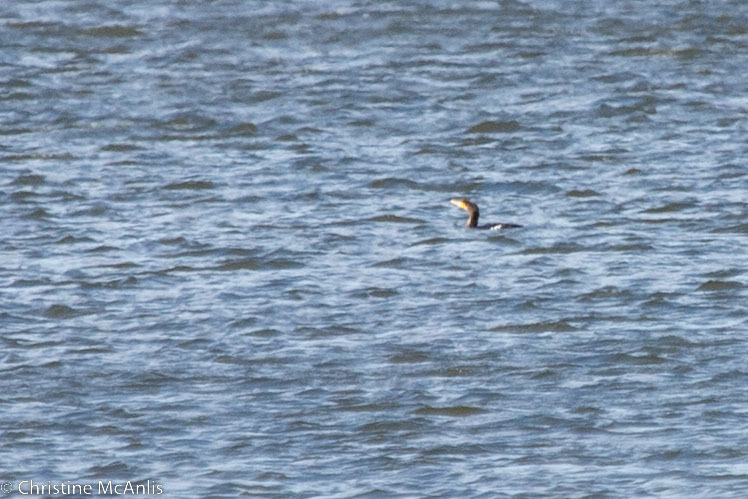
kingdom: Animalia
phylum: Chordata
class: Aves
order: Suliformes
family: Phalacrocoracidae
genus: Phalacrocorax
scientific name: Phalacrocorax auritus
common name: Double-crested cormorant
